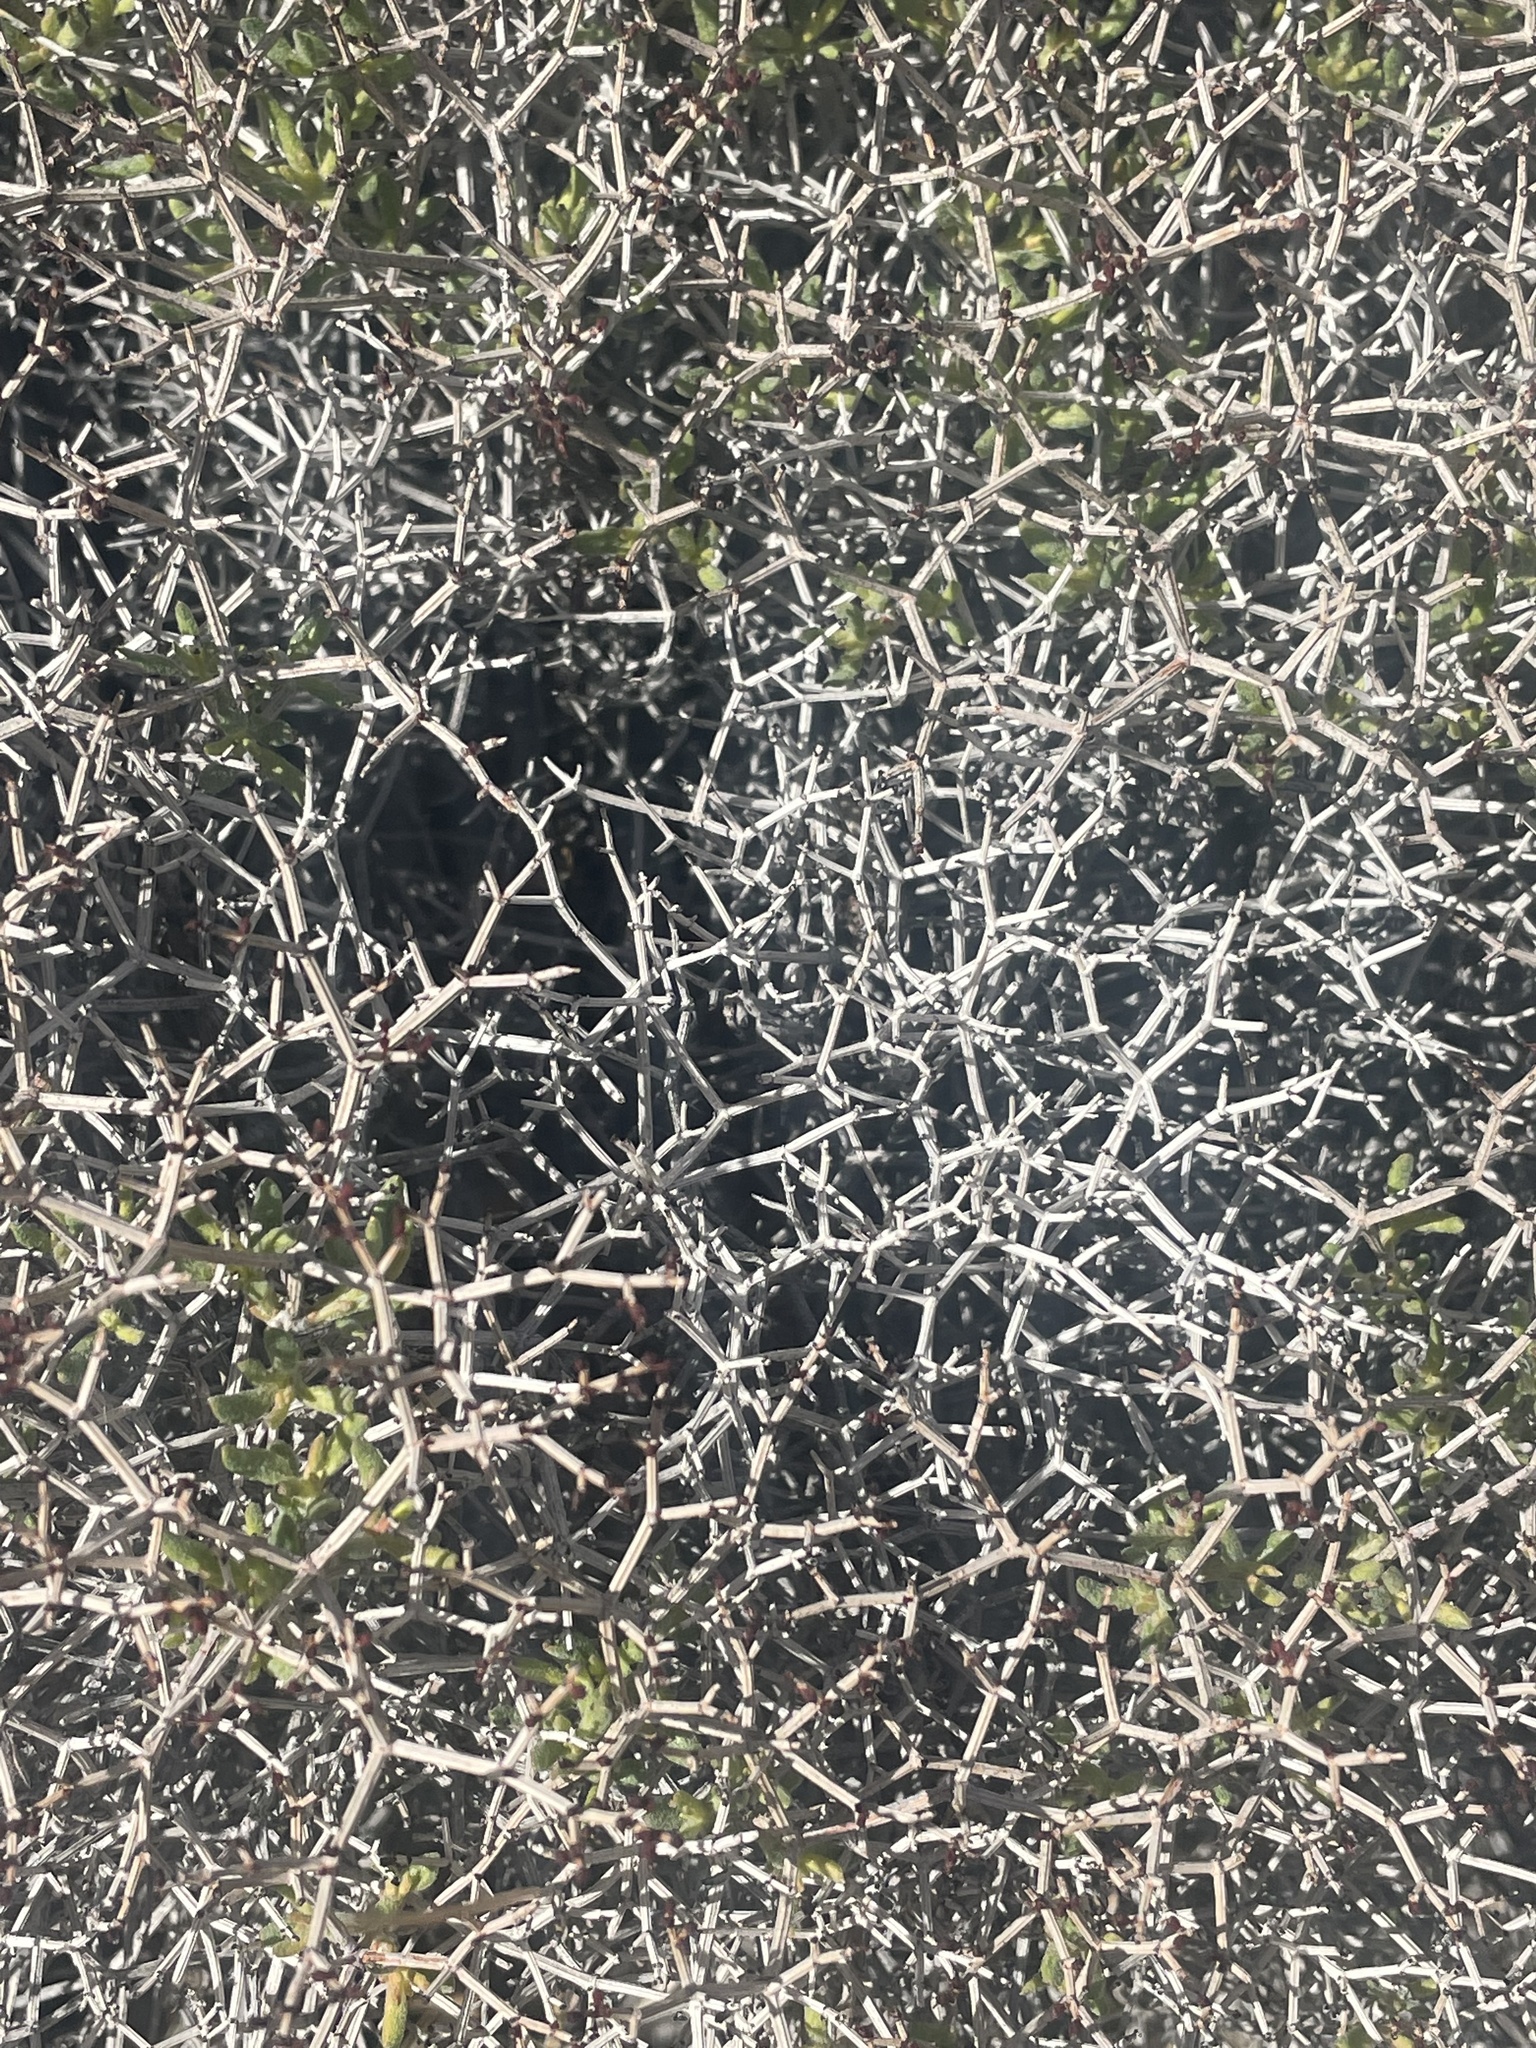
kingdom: Plantae
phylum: Tracheophyta
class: Magnoliopsida
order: Caryophyllales
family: Polygonaceae
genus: Eriogonum
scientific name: Eriogonum heermannii
